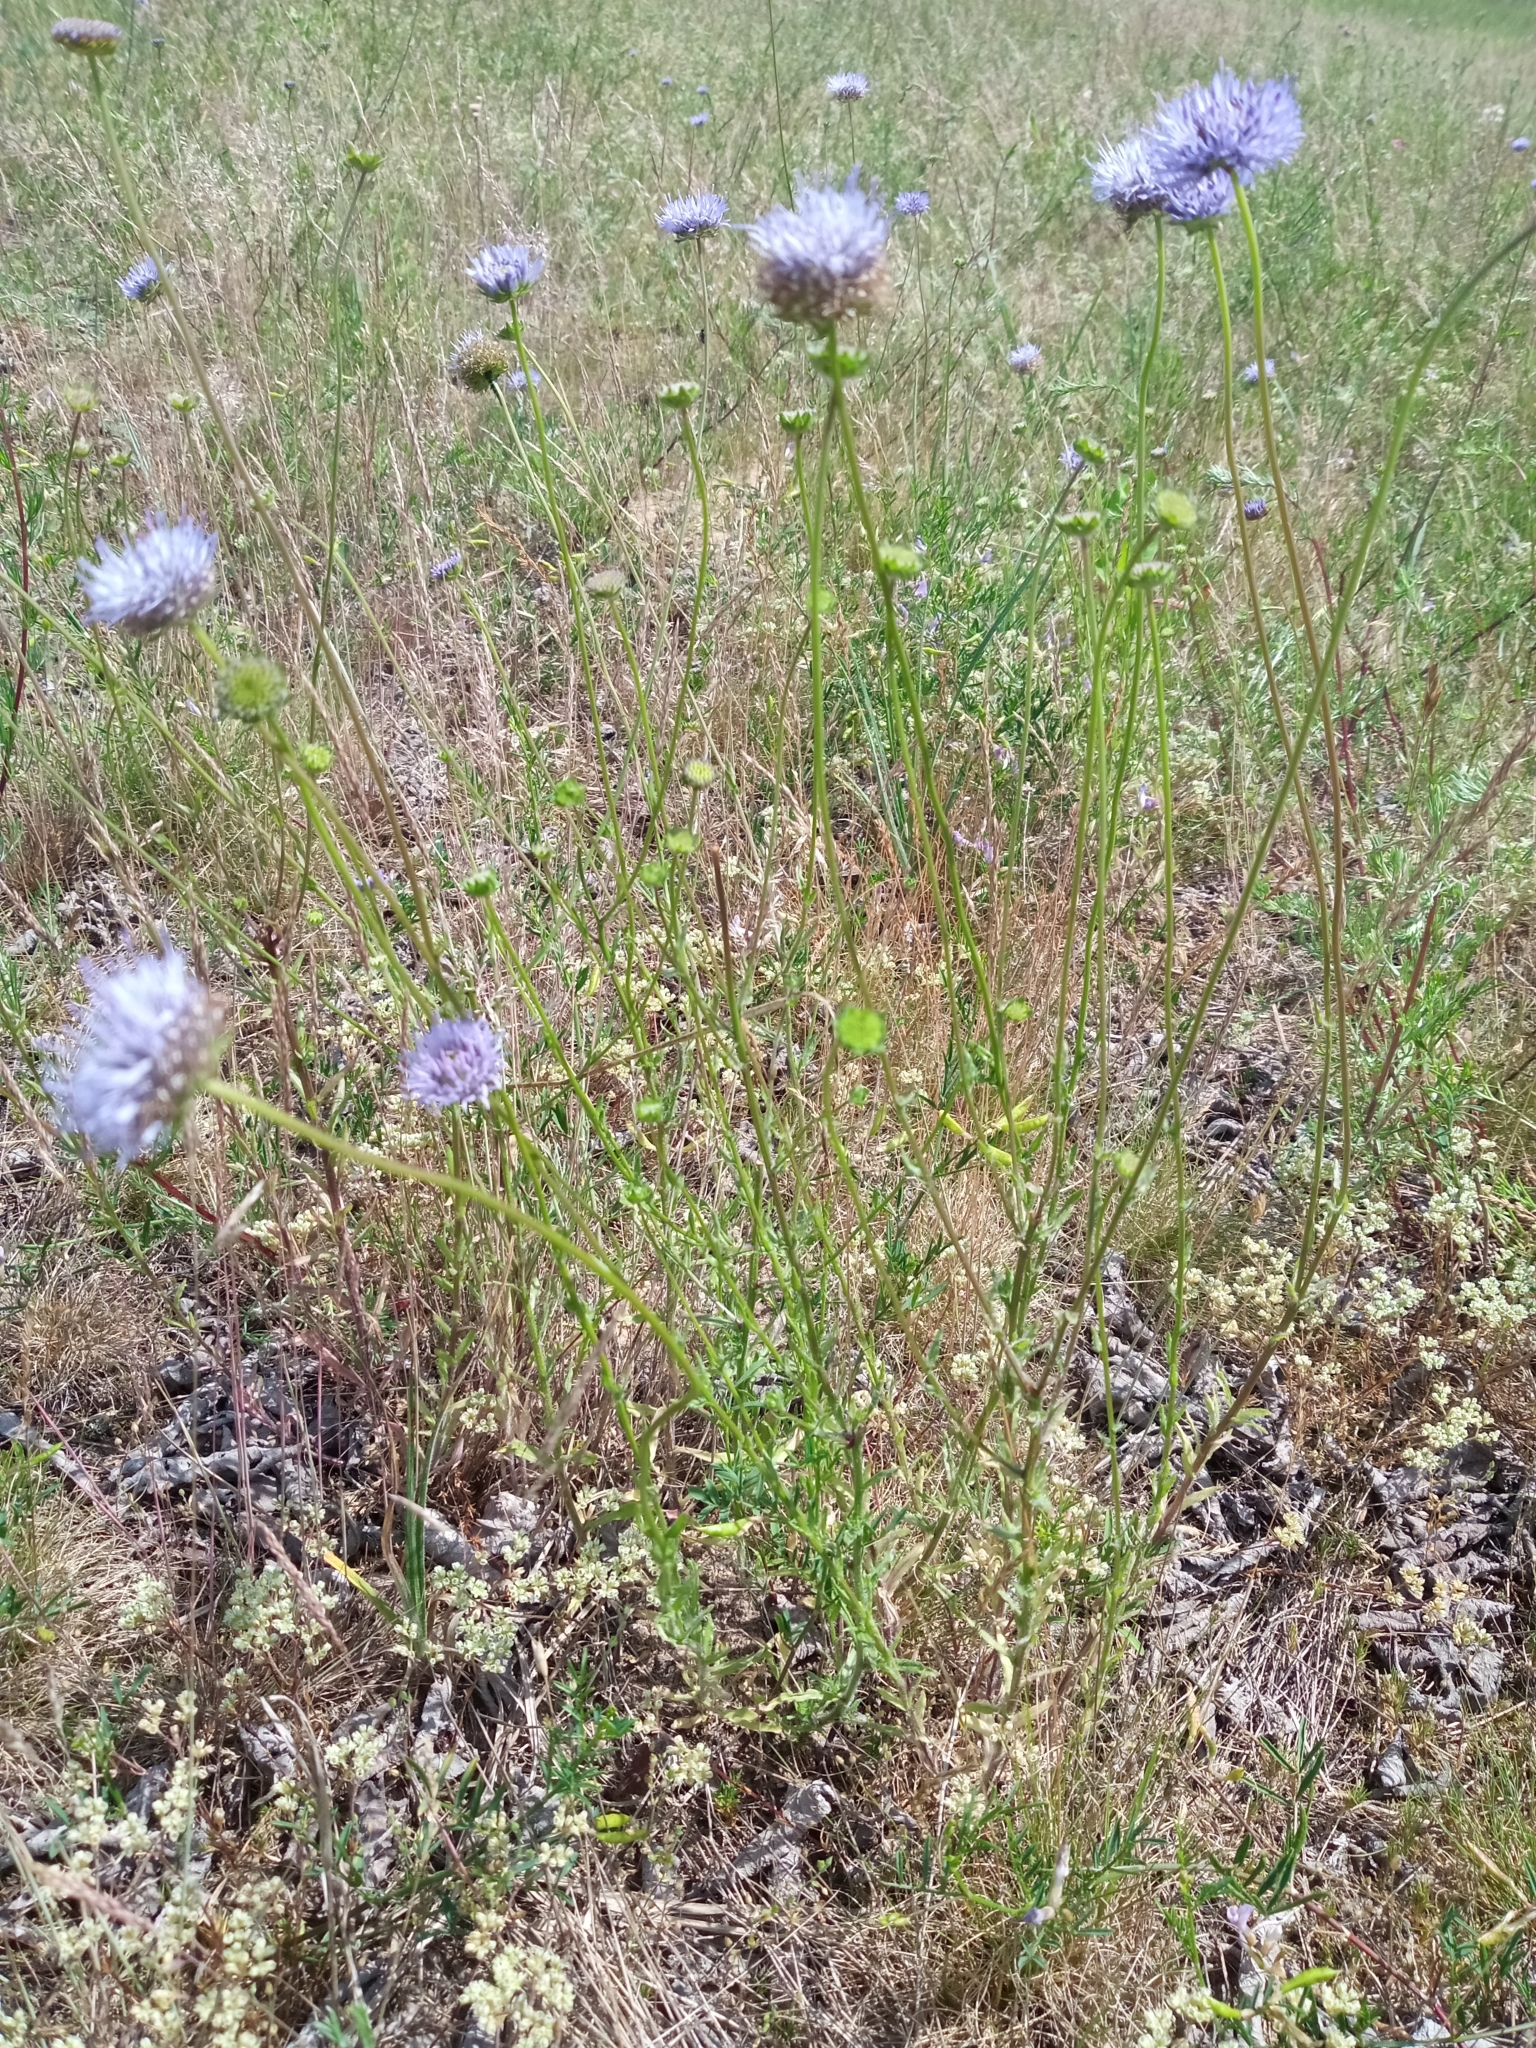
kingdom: Plantae
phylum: Tracheophyta
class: Magnoliopsida
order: Asterales
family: Campanulaceae
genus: Jasione
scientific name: Jasione montana
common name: Sheep's-bit
